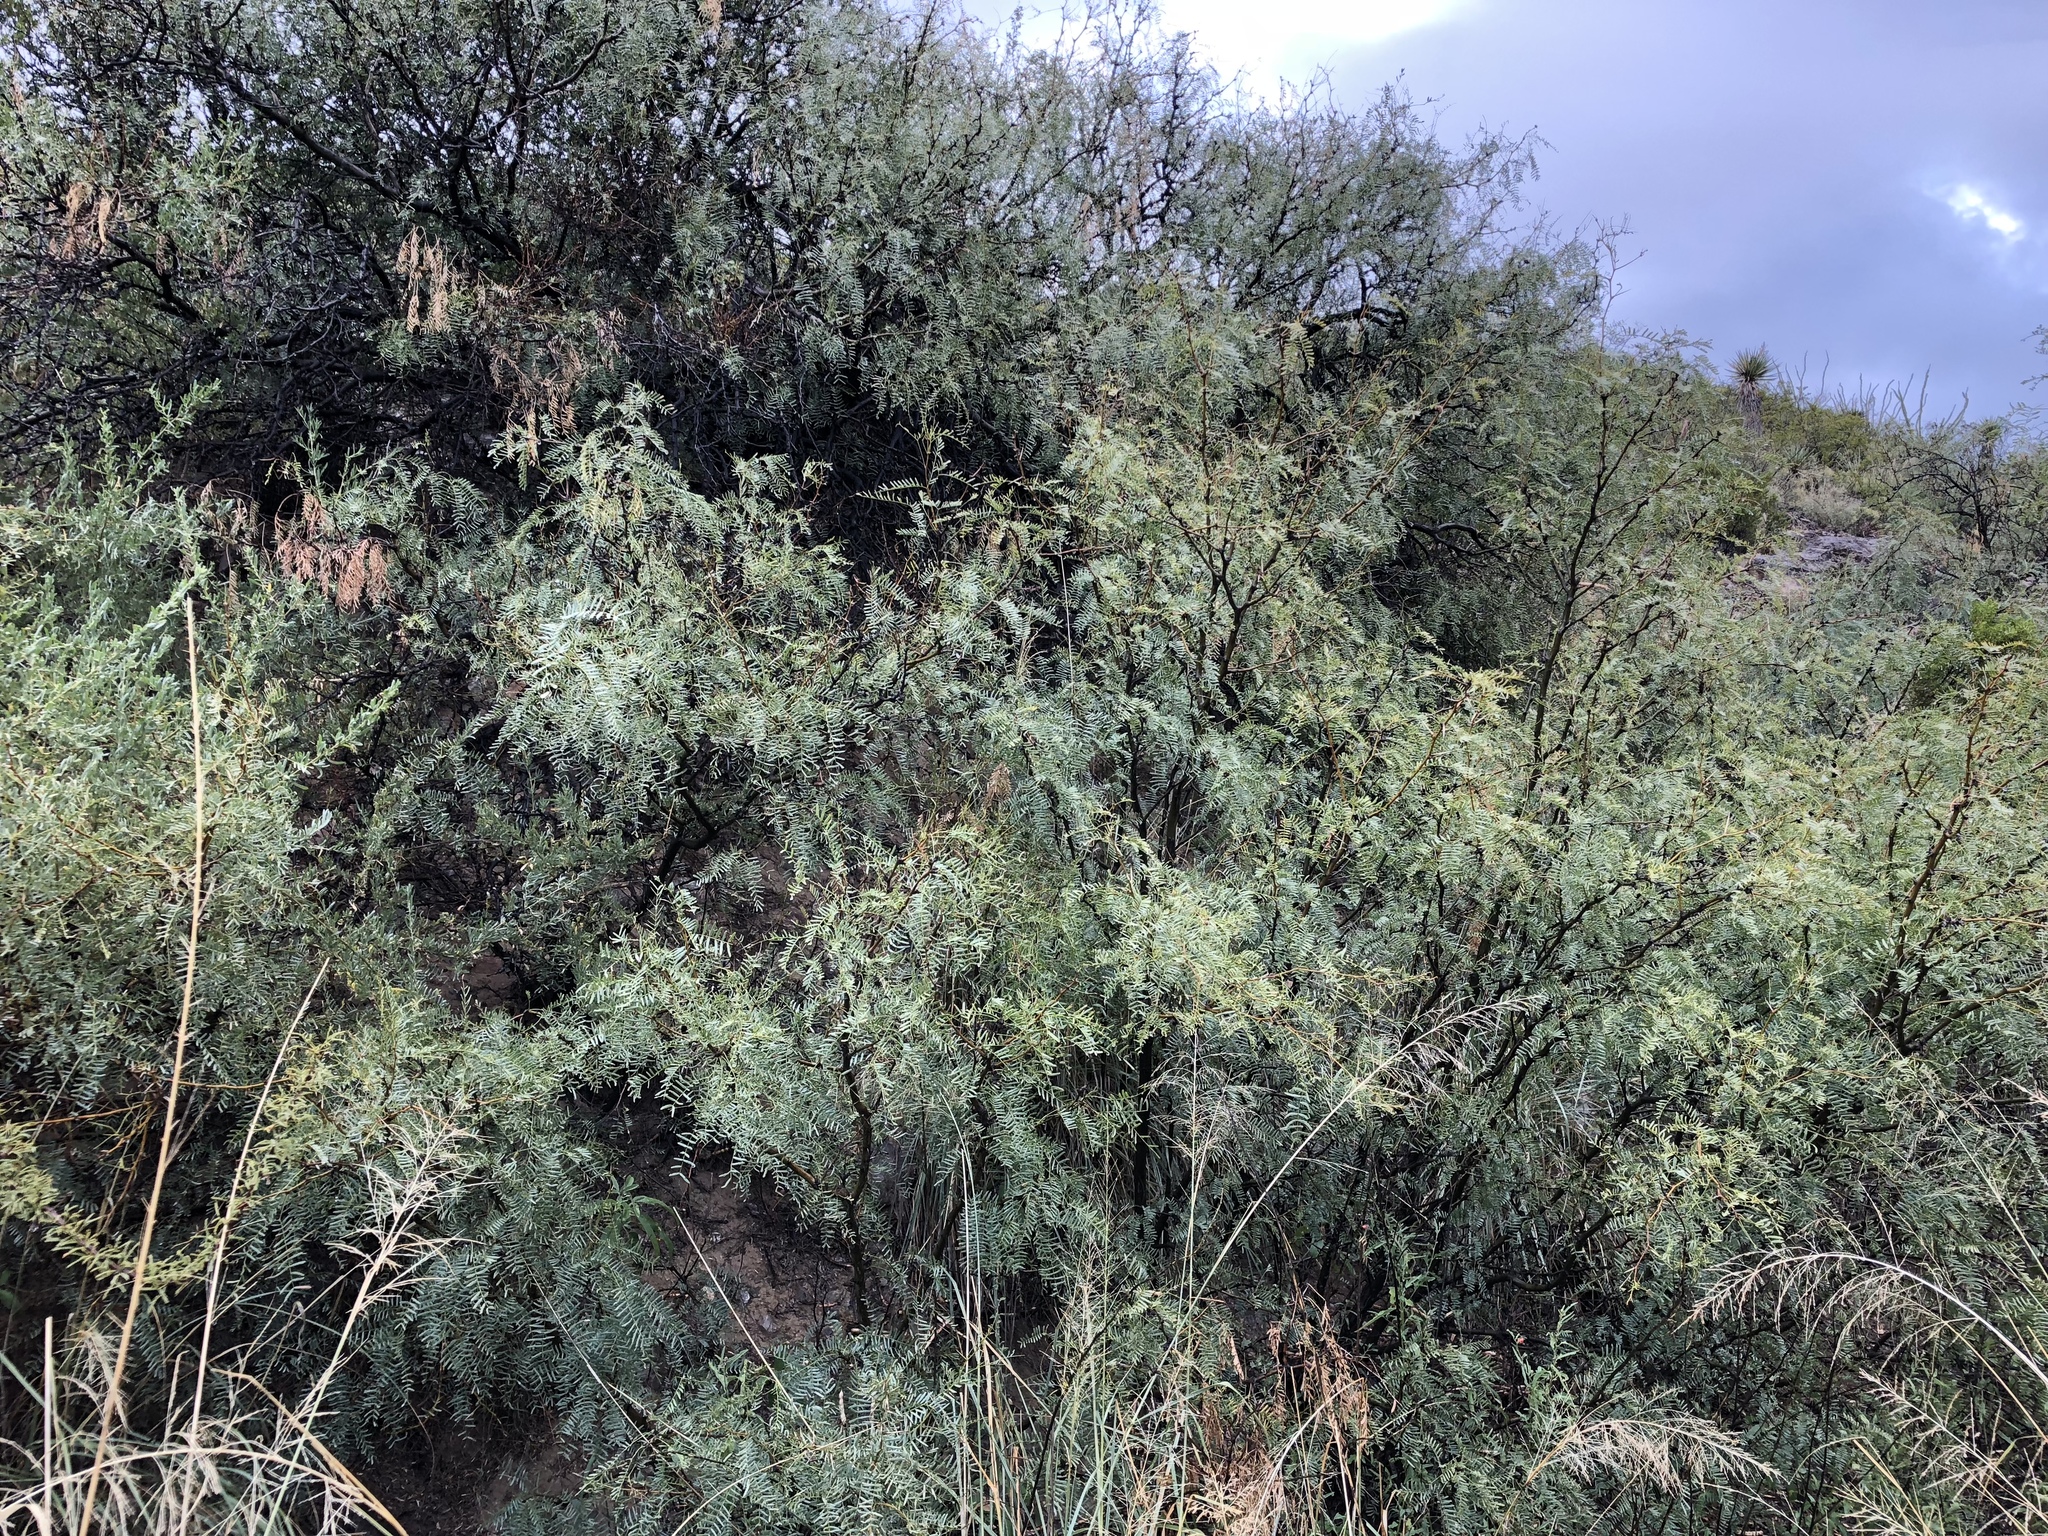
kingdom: Plantae
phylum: Tracheophyta
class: Magnoliopsida
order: Fabales
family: Fabaceae
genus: Prosopis
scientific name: Prosopis glandulosa
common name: Honey mesquite
